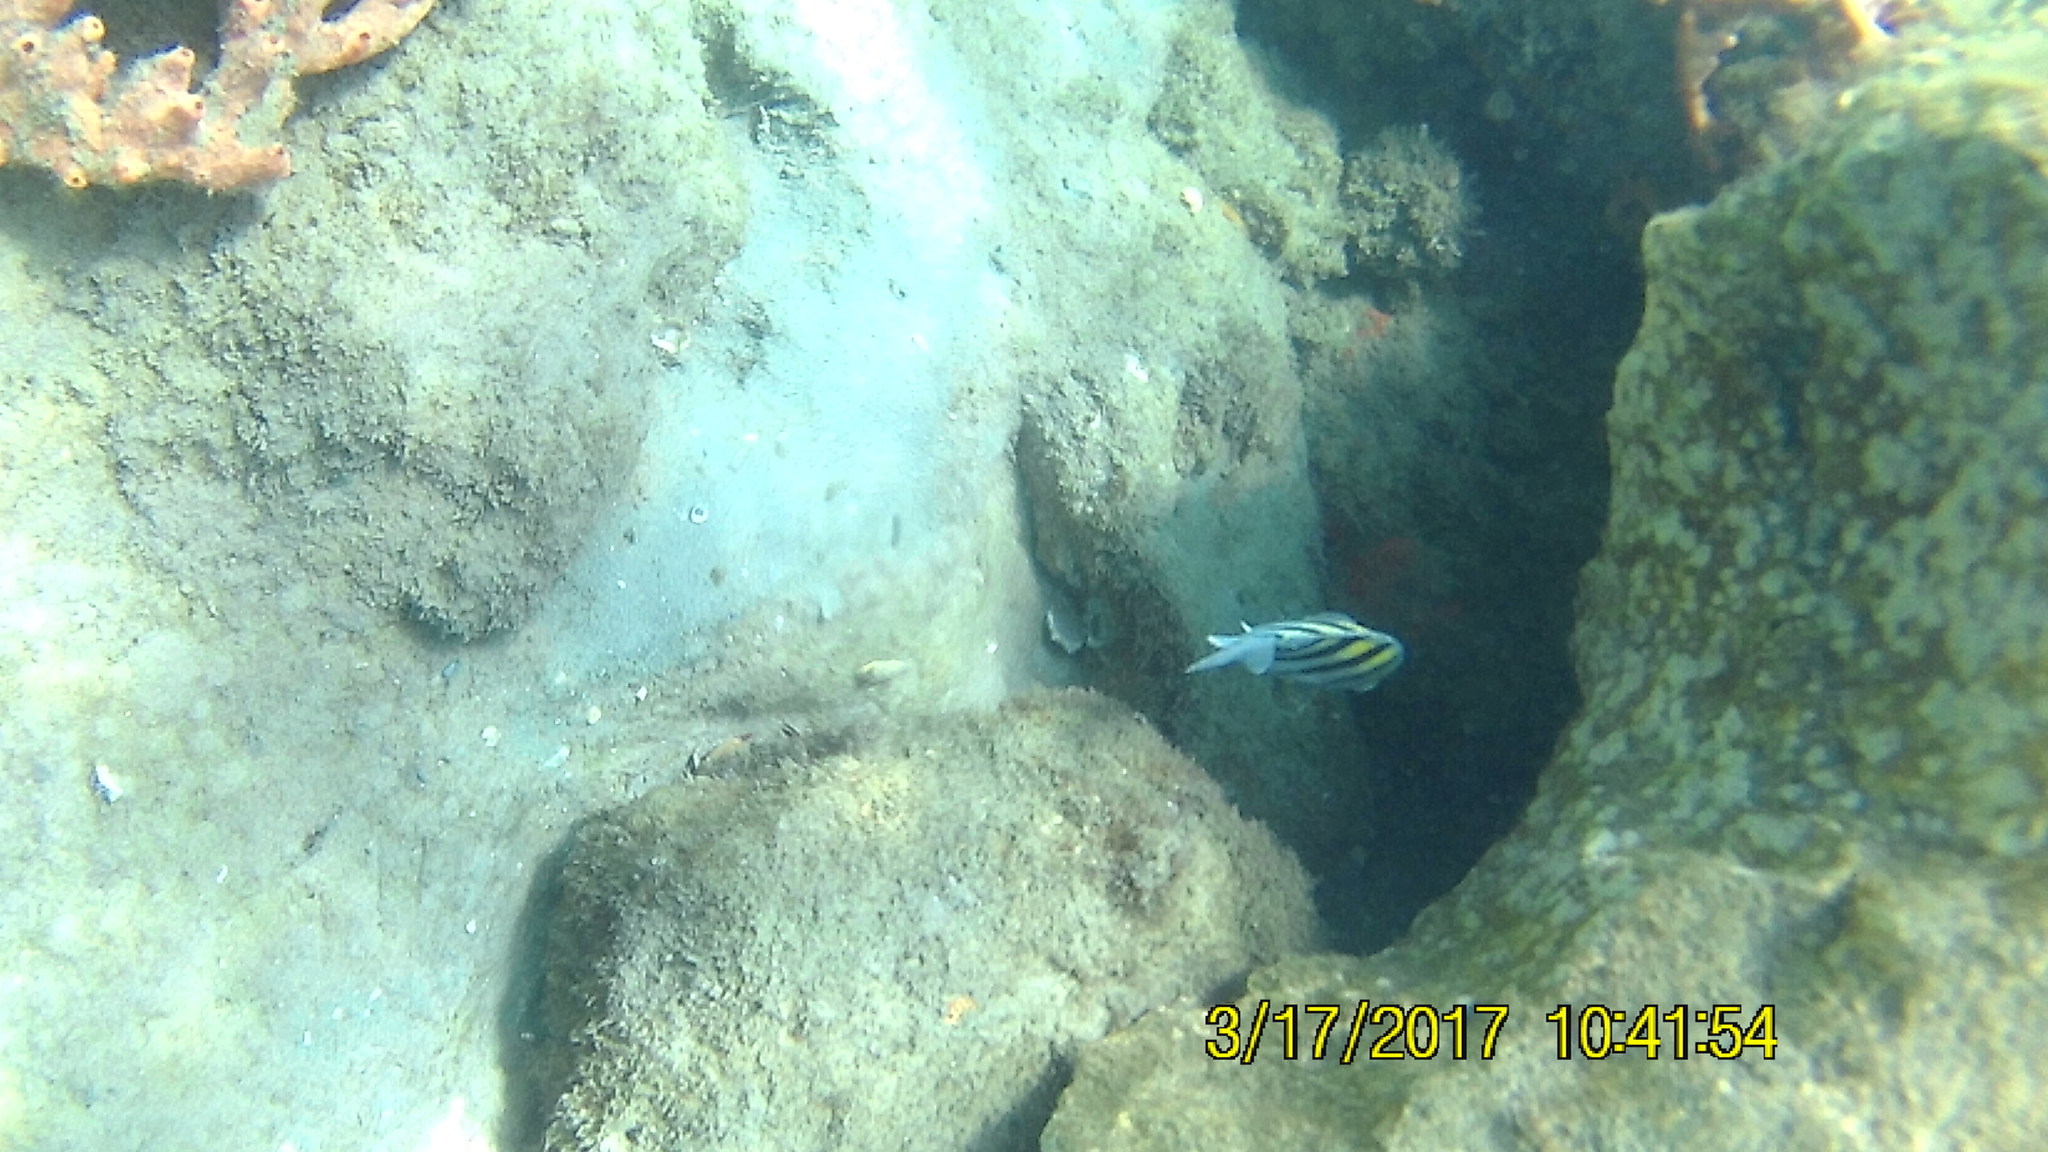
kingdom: Animalia
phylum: Chordata
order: Perciformes
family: Pomacentridae
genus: Abudefduf
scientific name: Abudefduf saxatilis
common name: Sergeant major
